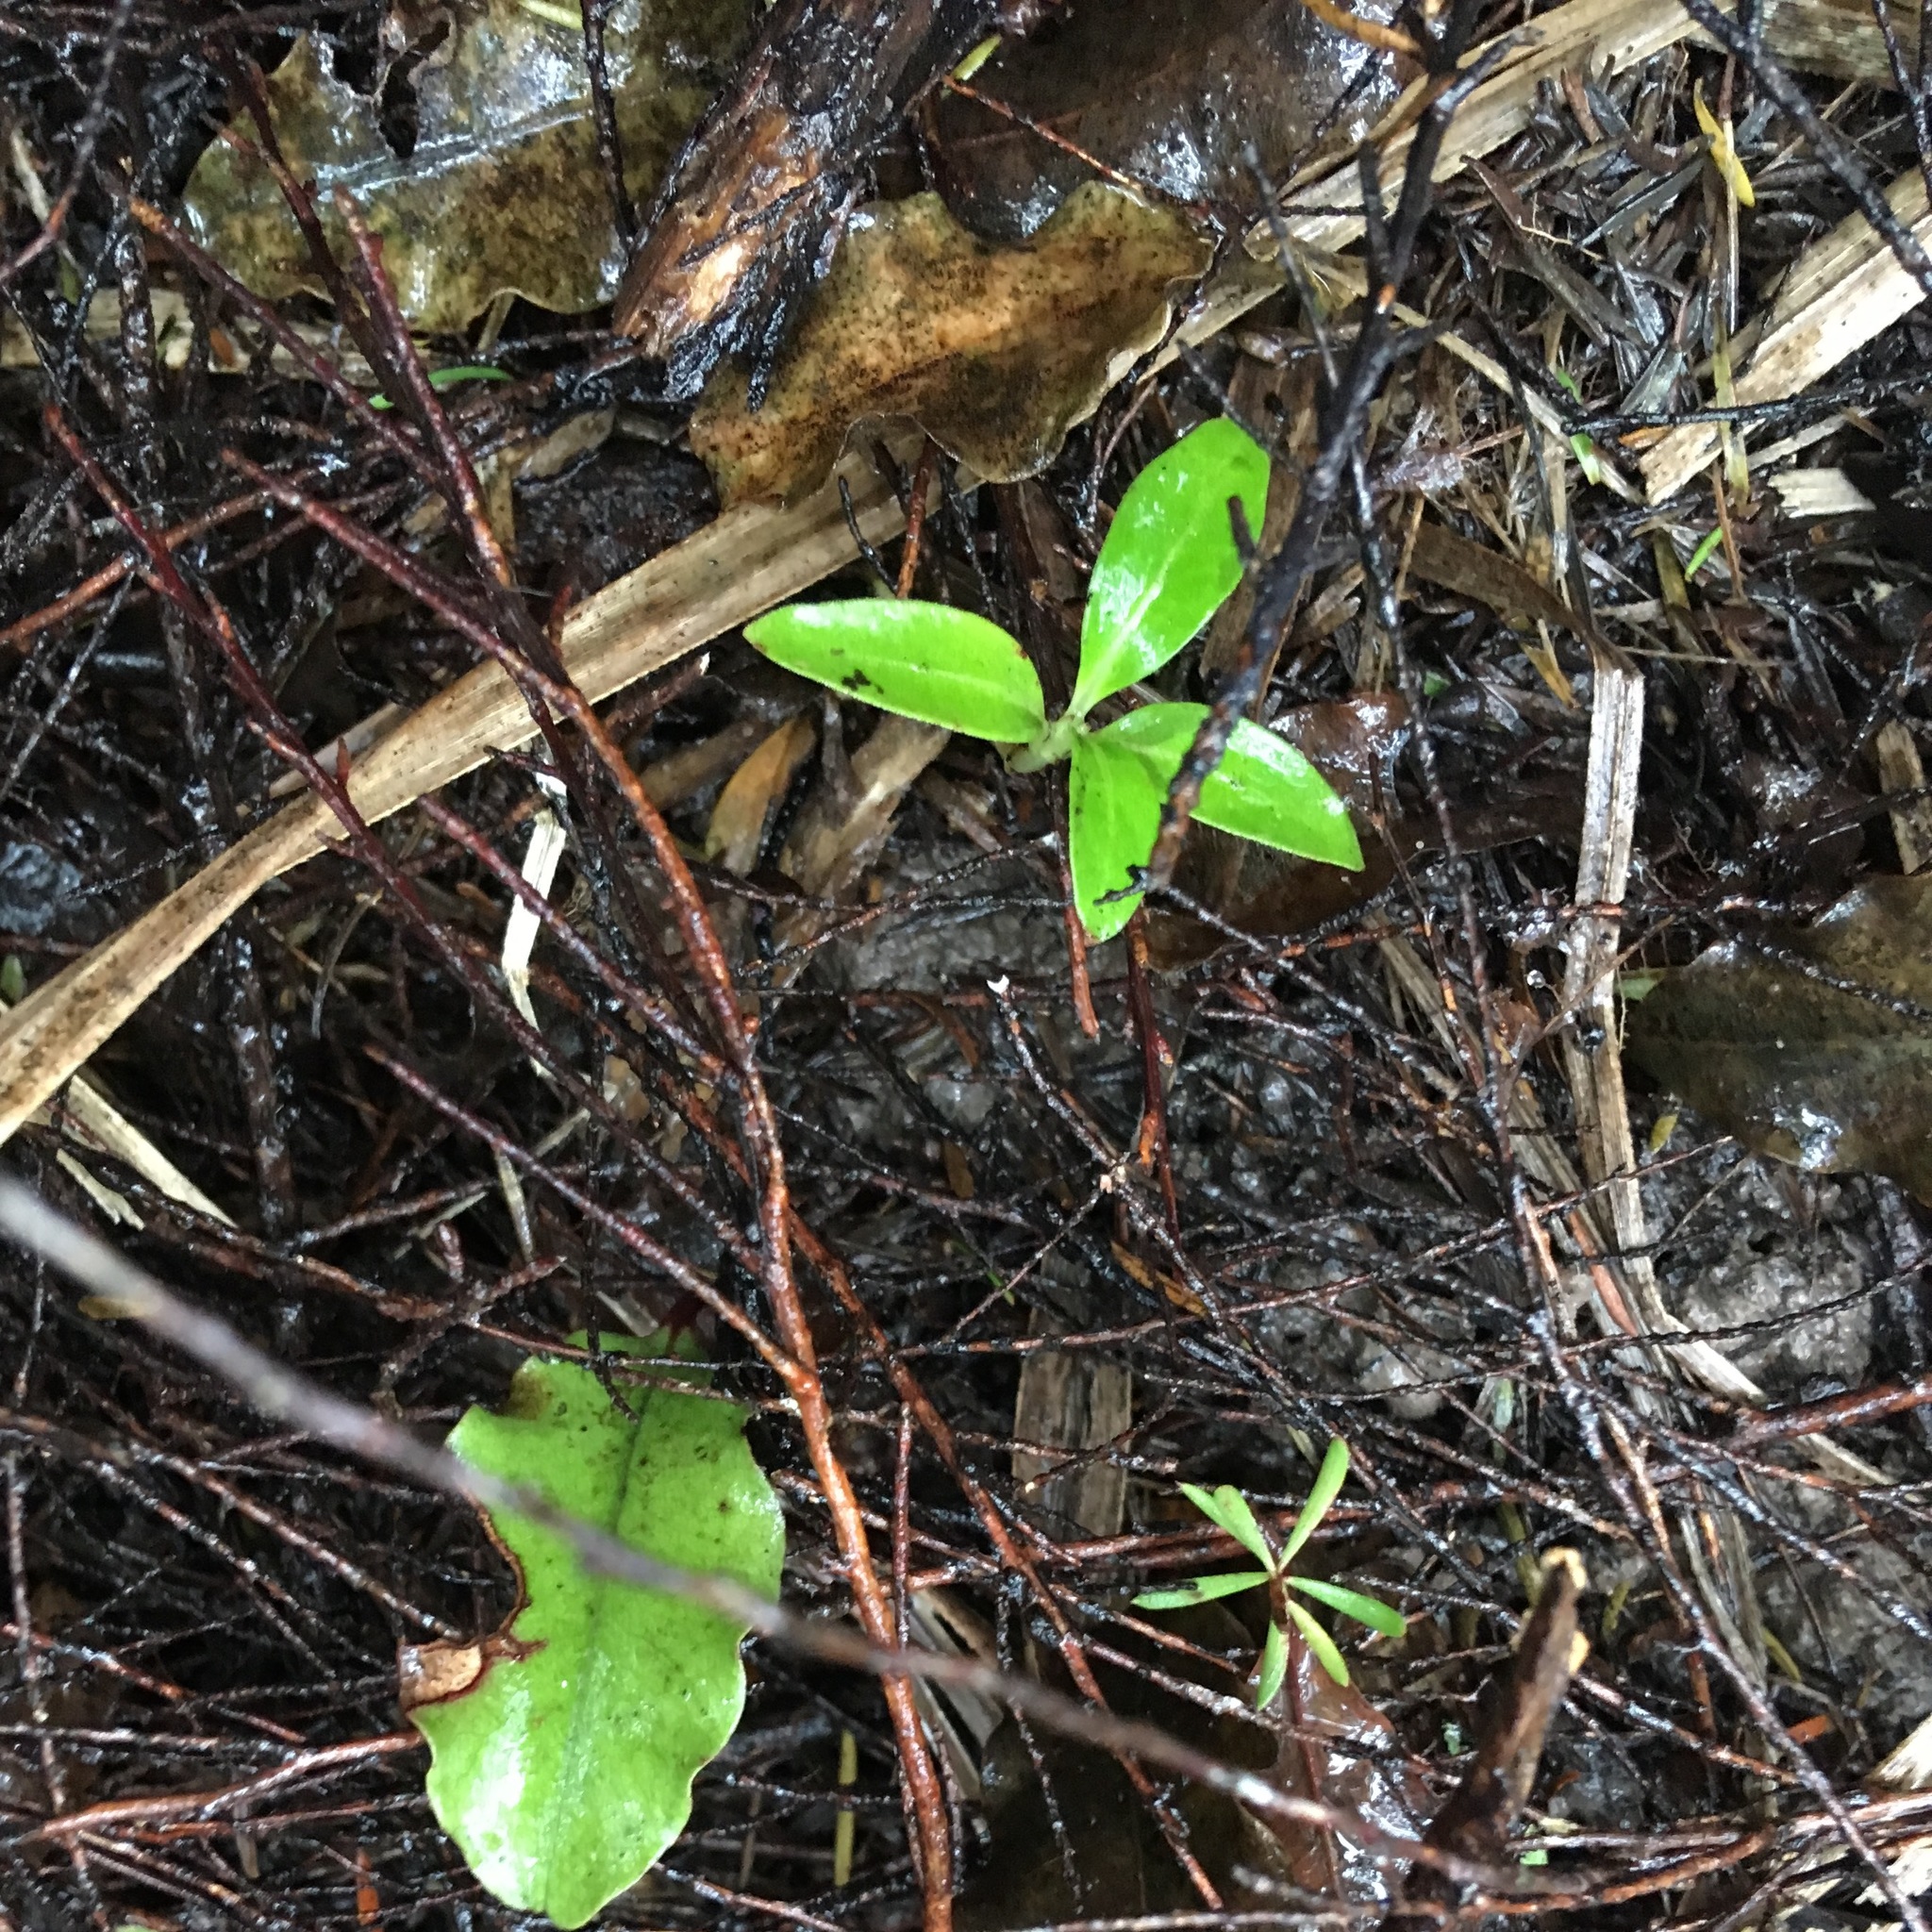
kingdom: Plantae
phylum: Tracheophyta
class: Magnoliopsida
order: Gentianales
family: Rubiaceae
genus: Coprosma
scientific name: Coprosma robusta
